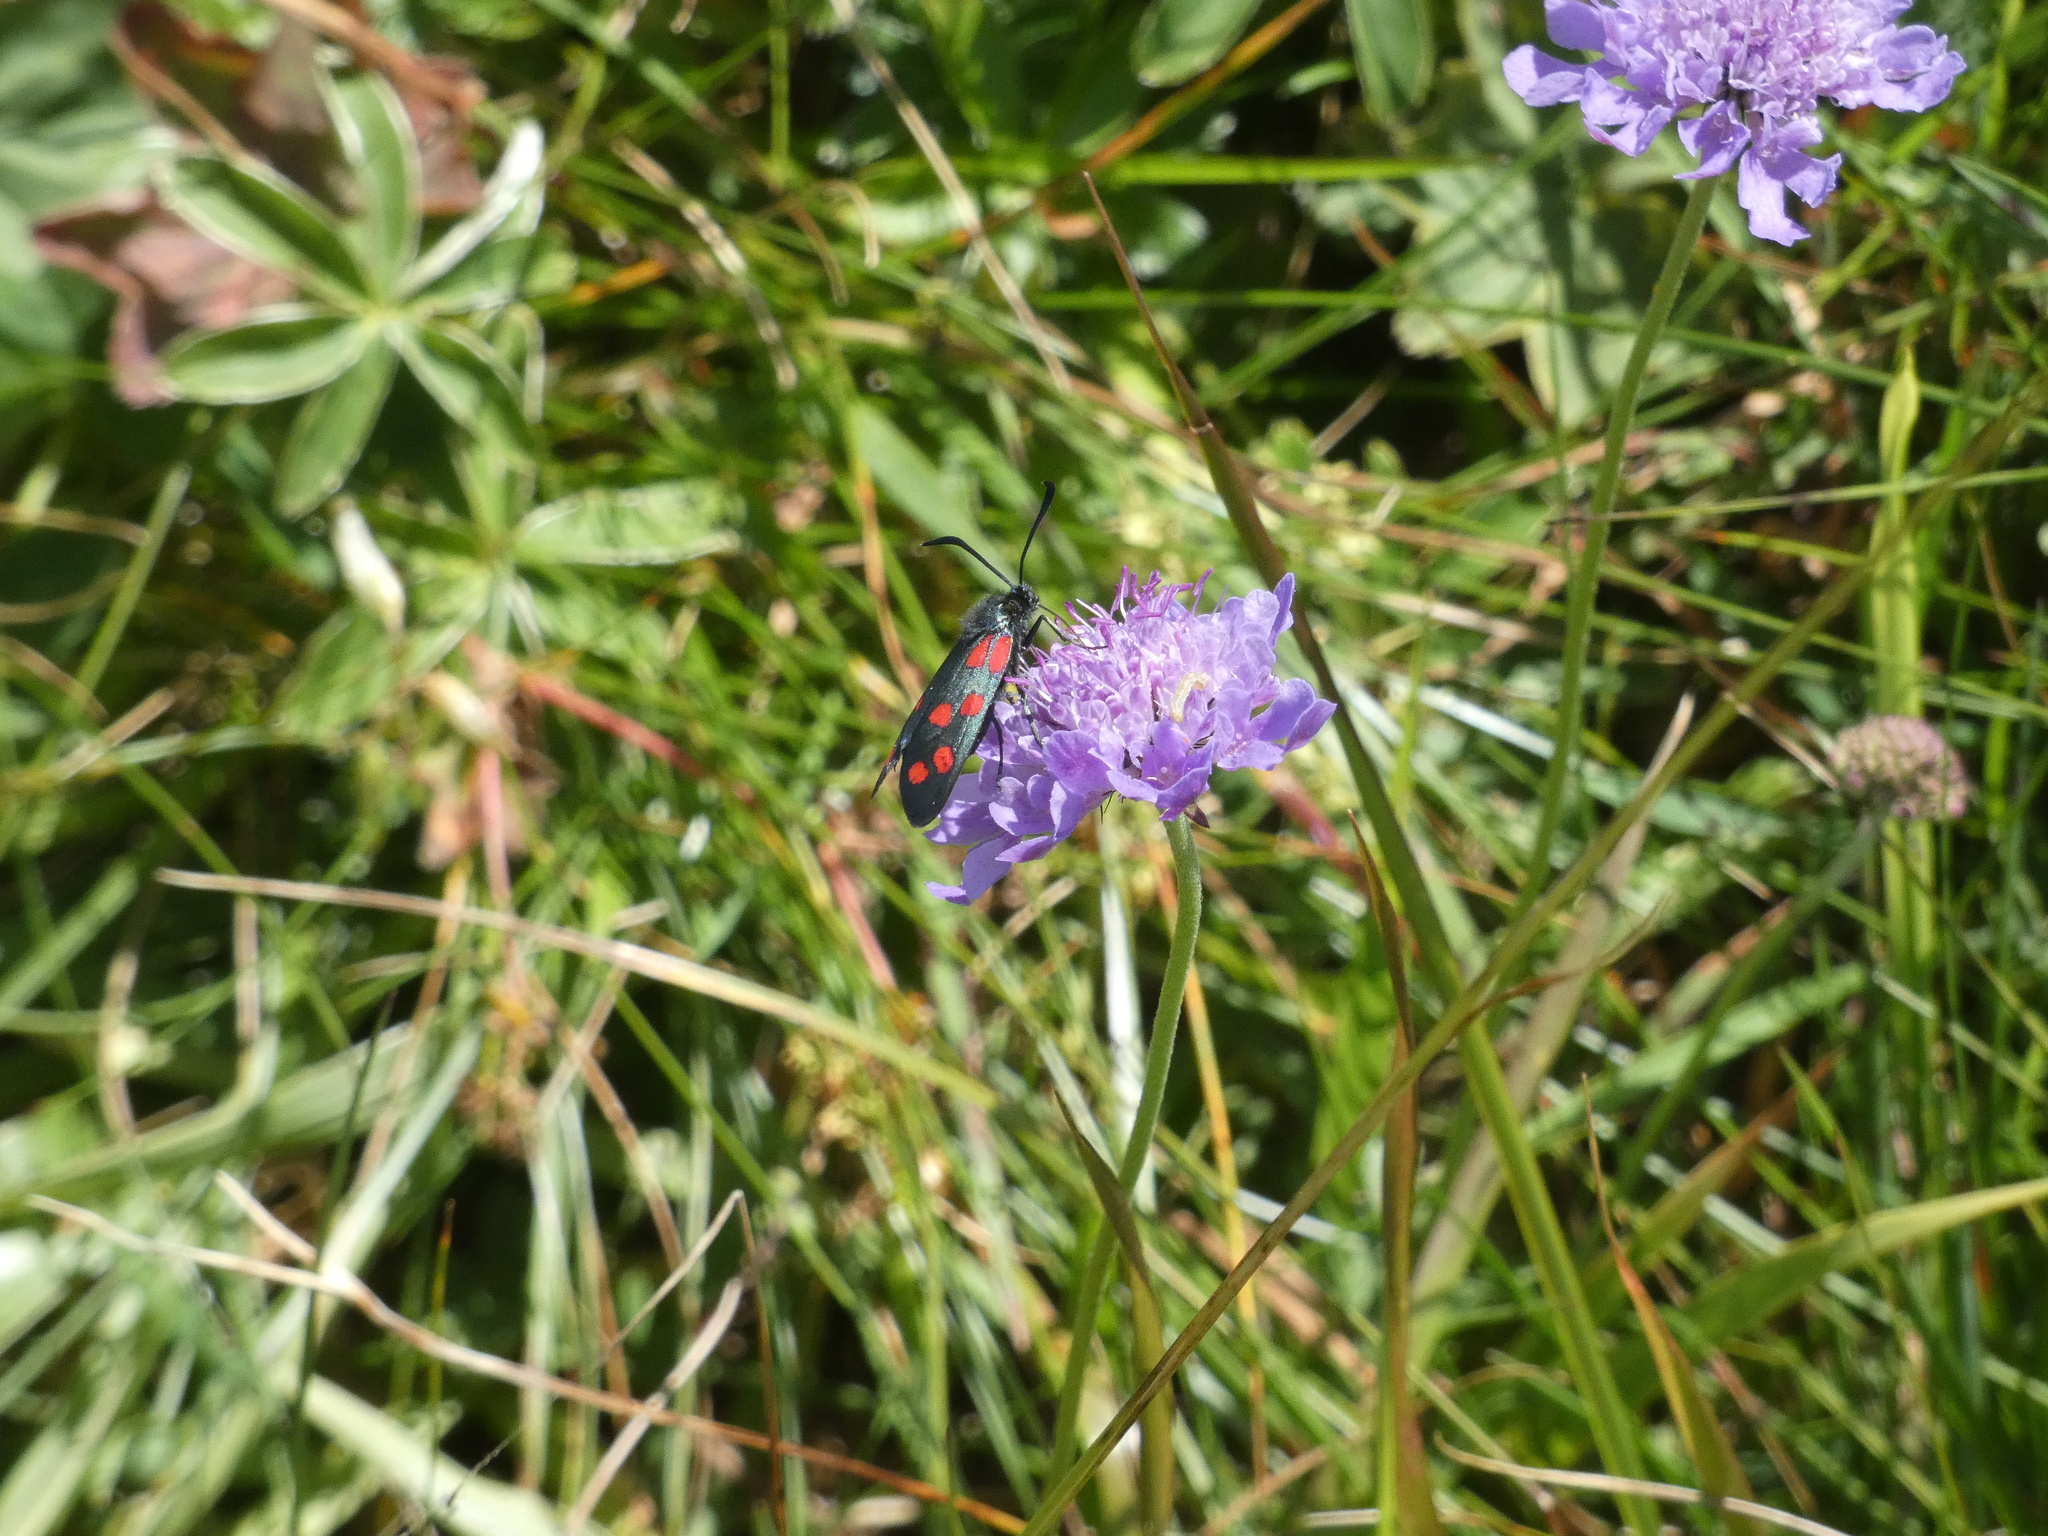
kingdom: Animalia
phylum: Arthropoda
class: Insecta
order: Lepidoptera
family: Zygaenidae
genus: Zygaena
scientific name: Zygaena transalpina
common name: Southern six spot burnet
